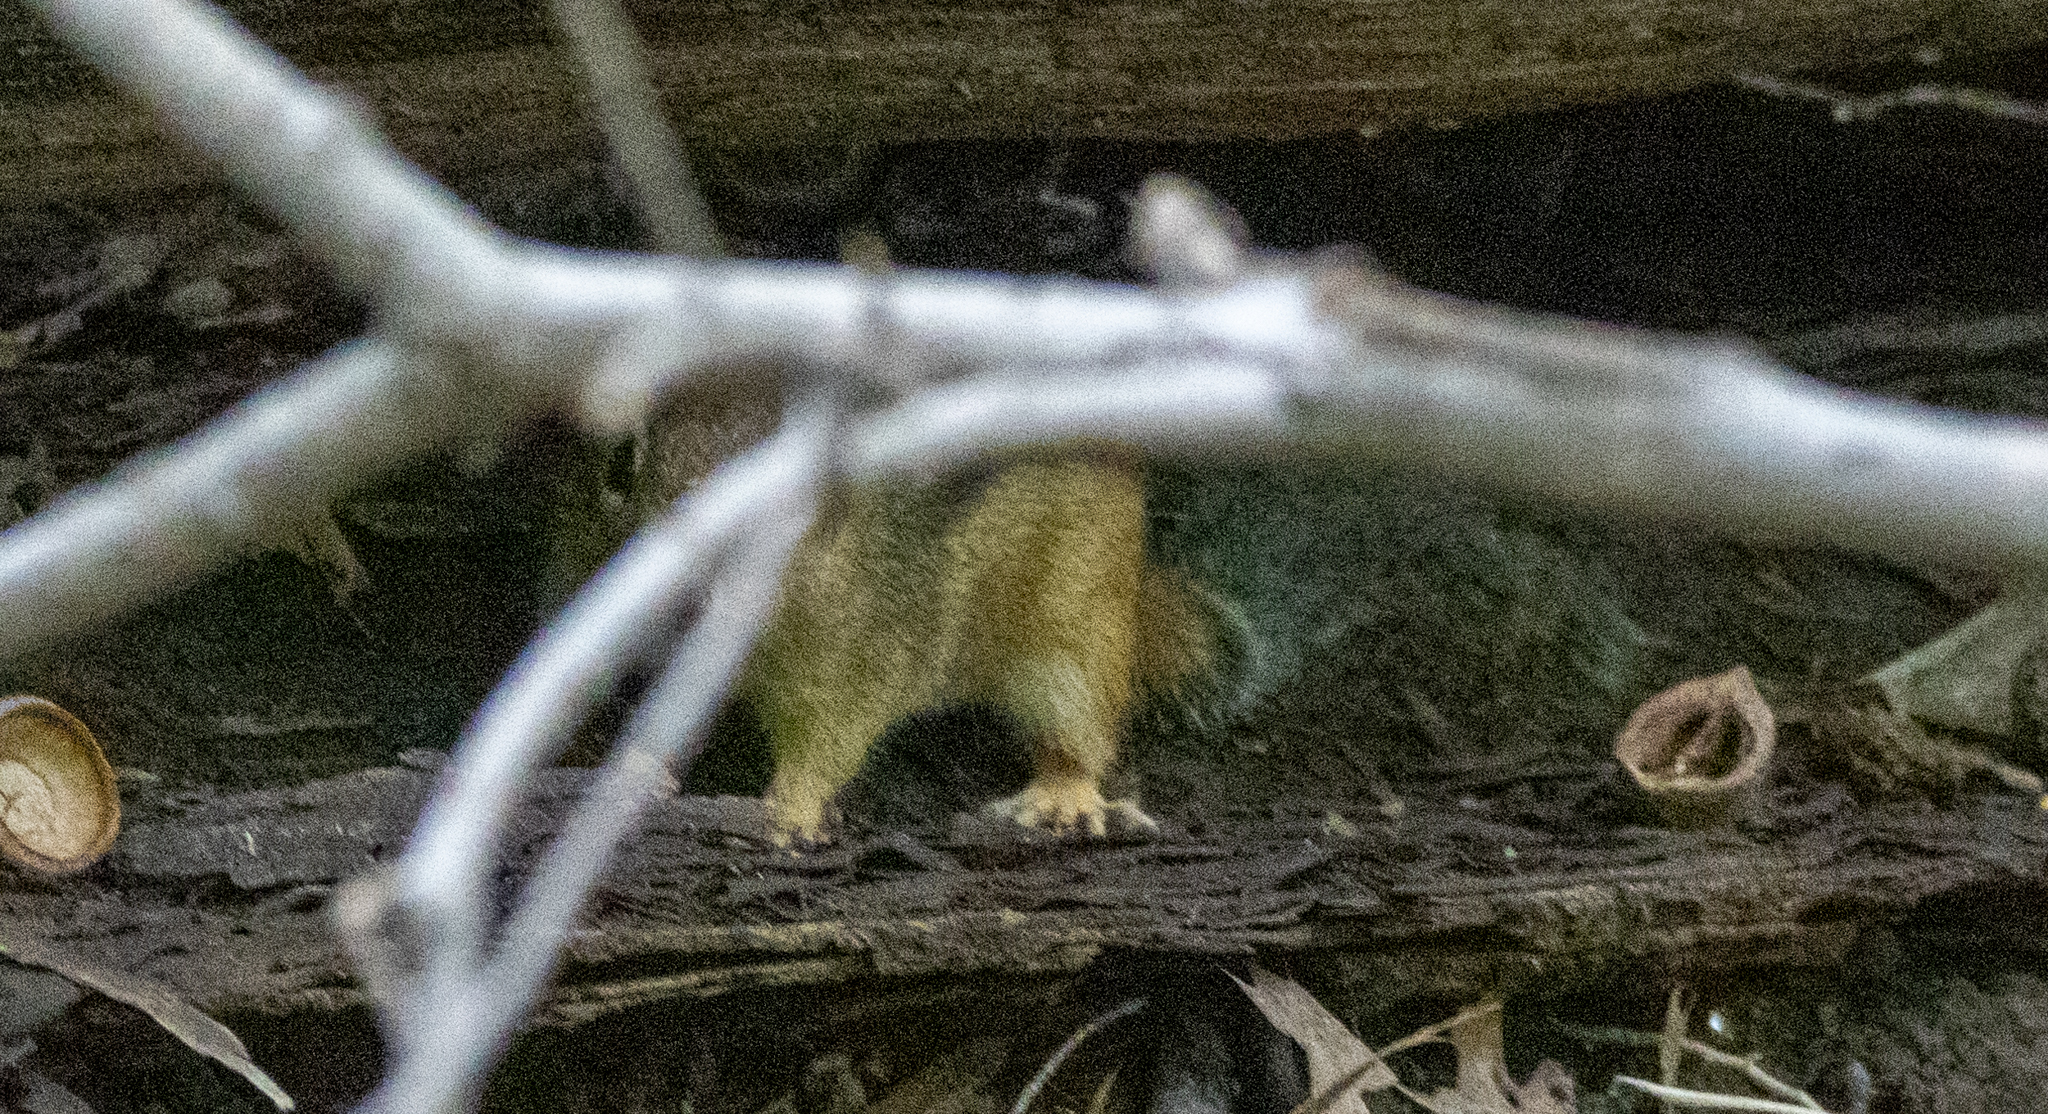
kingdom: Animalia
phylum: Chordata
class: Mammalia
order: Rodentia
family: Sciuridae
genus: Tamias
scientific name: Tamias striatus
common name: Eastern chipmunk
